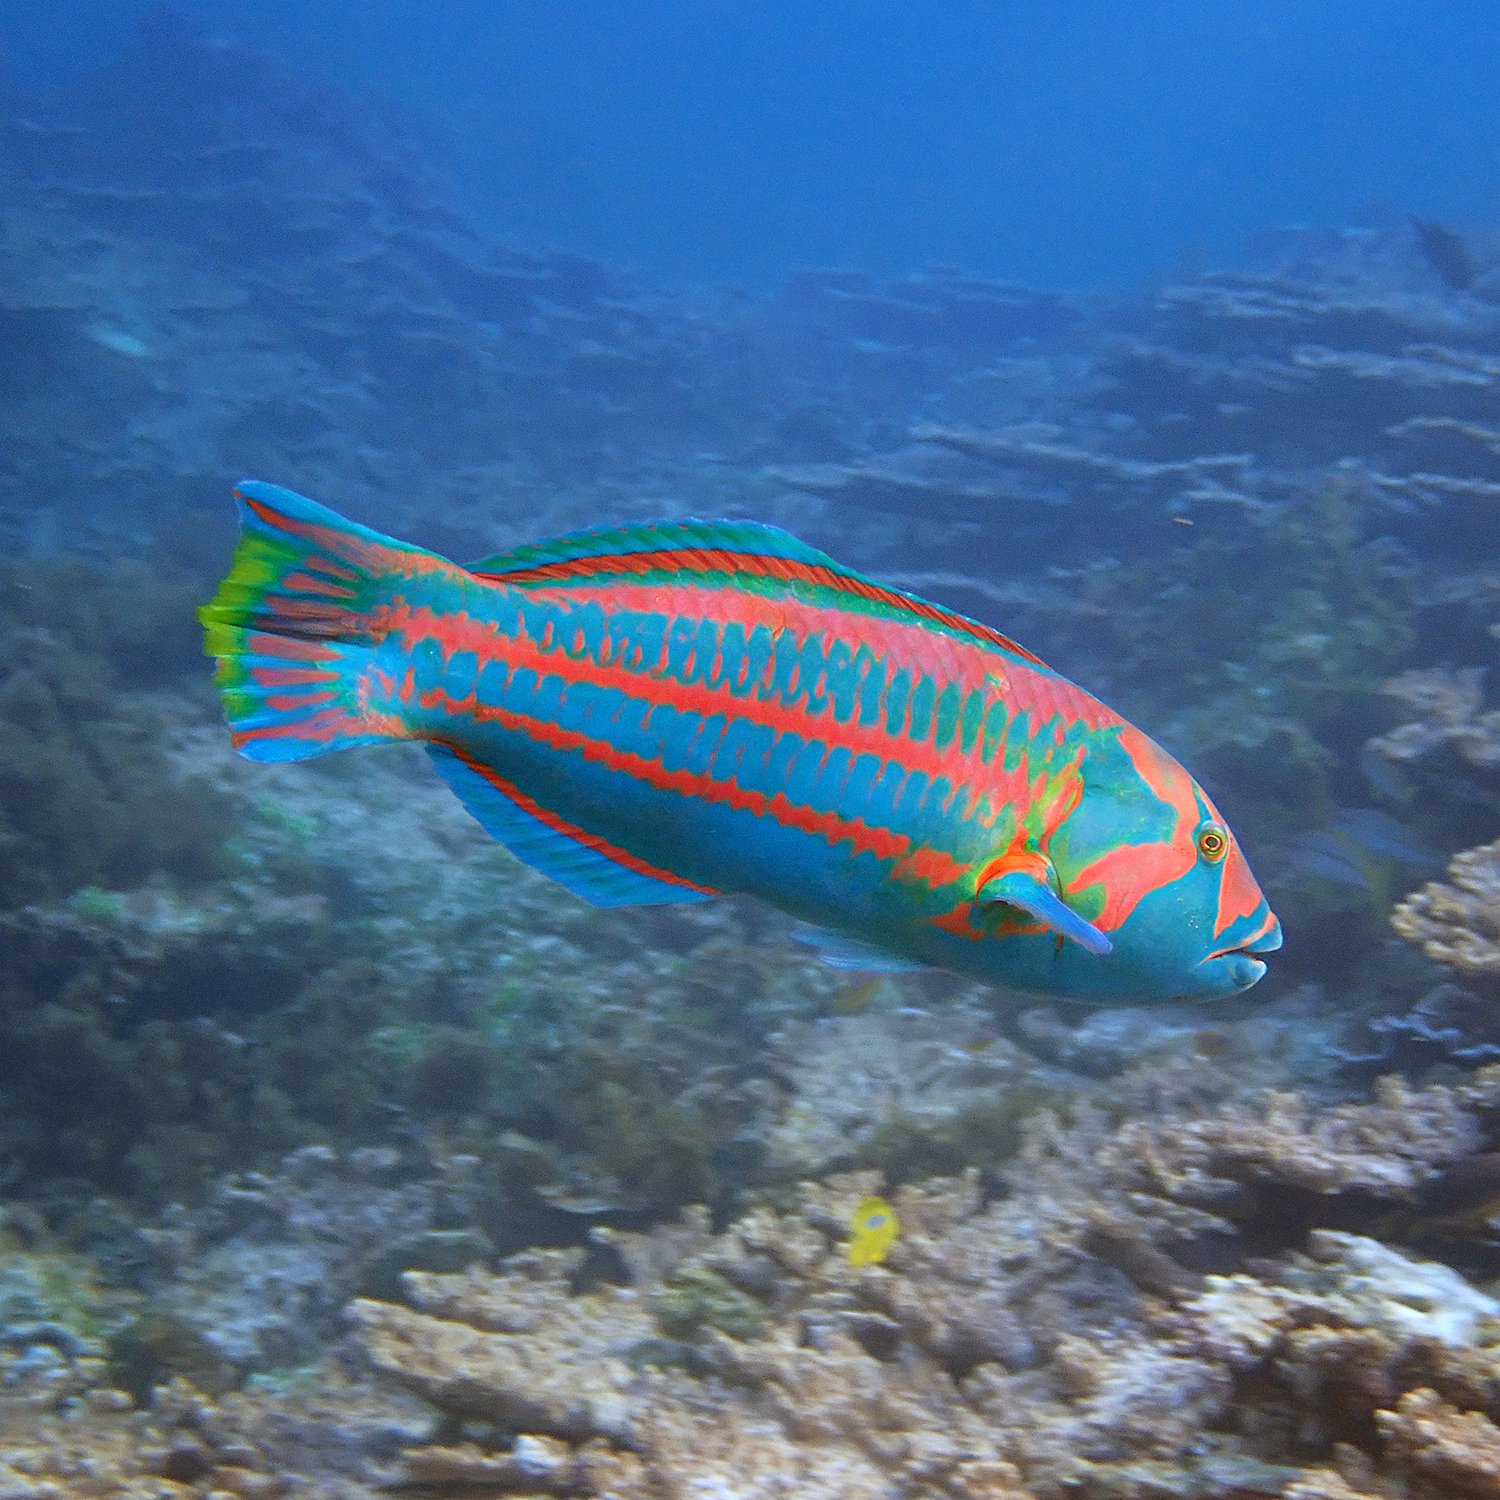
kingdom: Animalia
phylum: Chordata
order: Perciformes
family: Labridae
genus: Thalassoma
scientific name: Thalassoma purpureum
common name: Parrotfish
